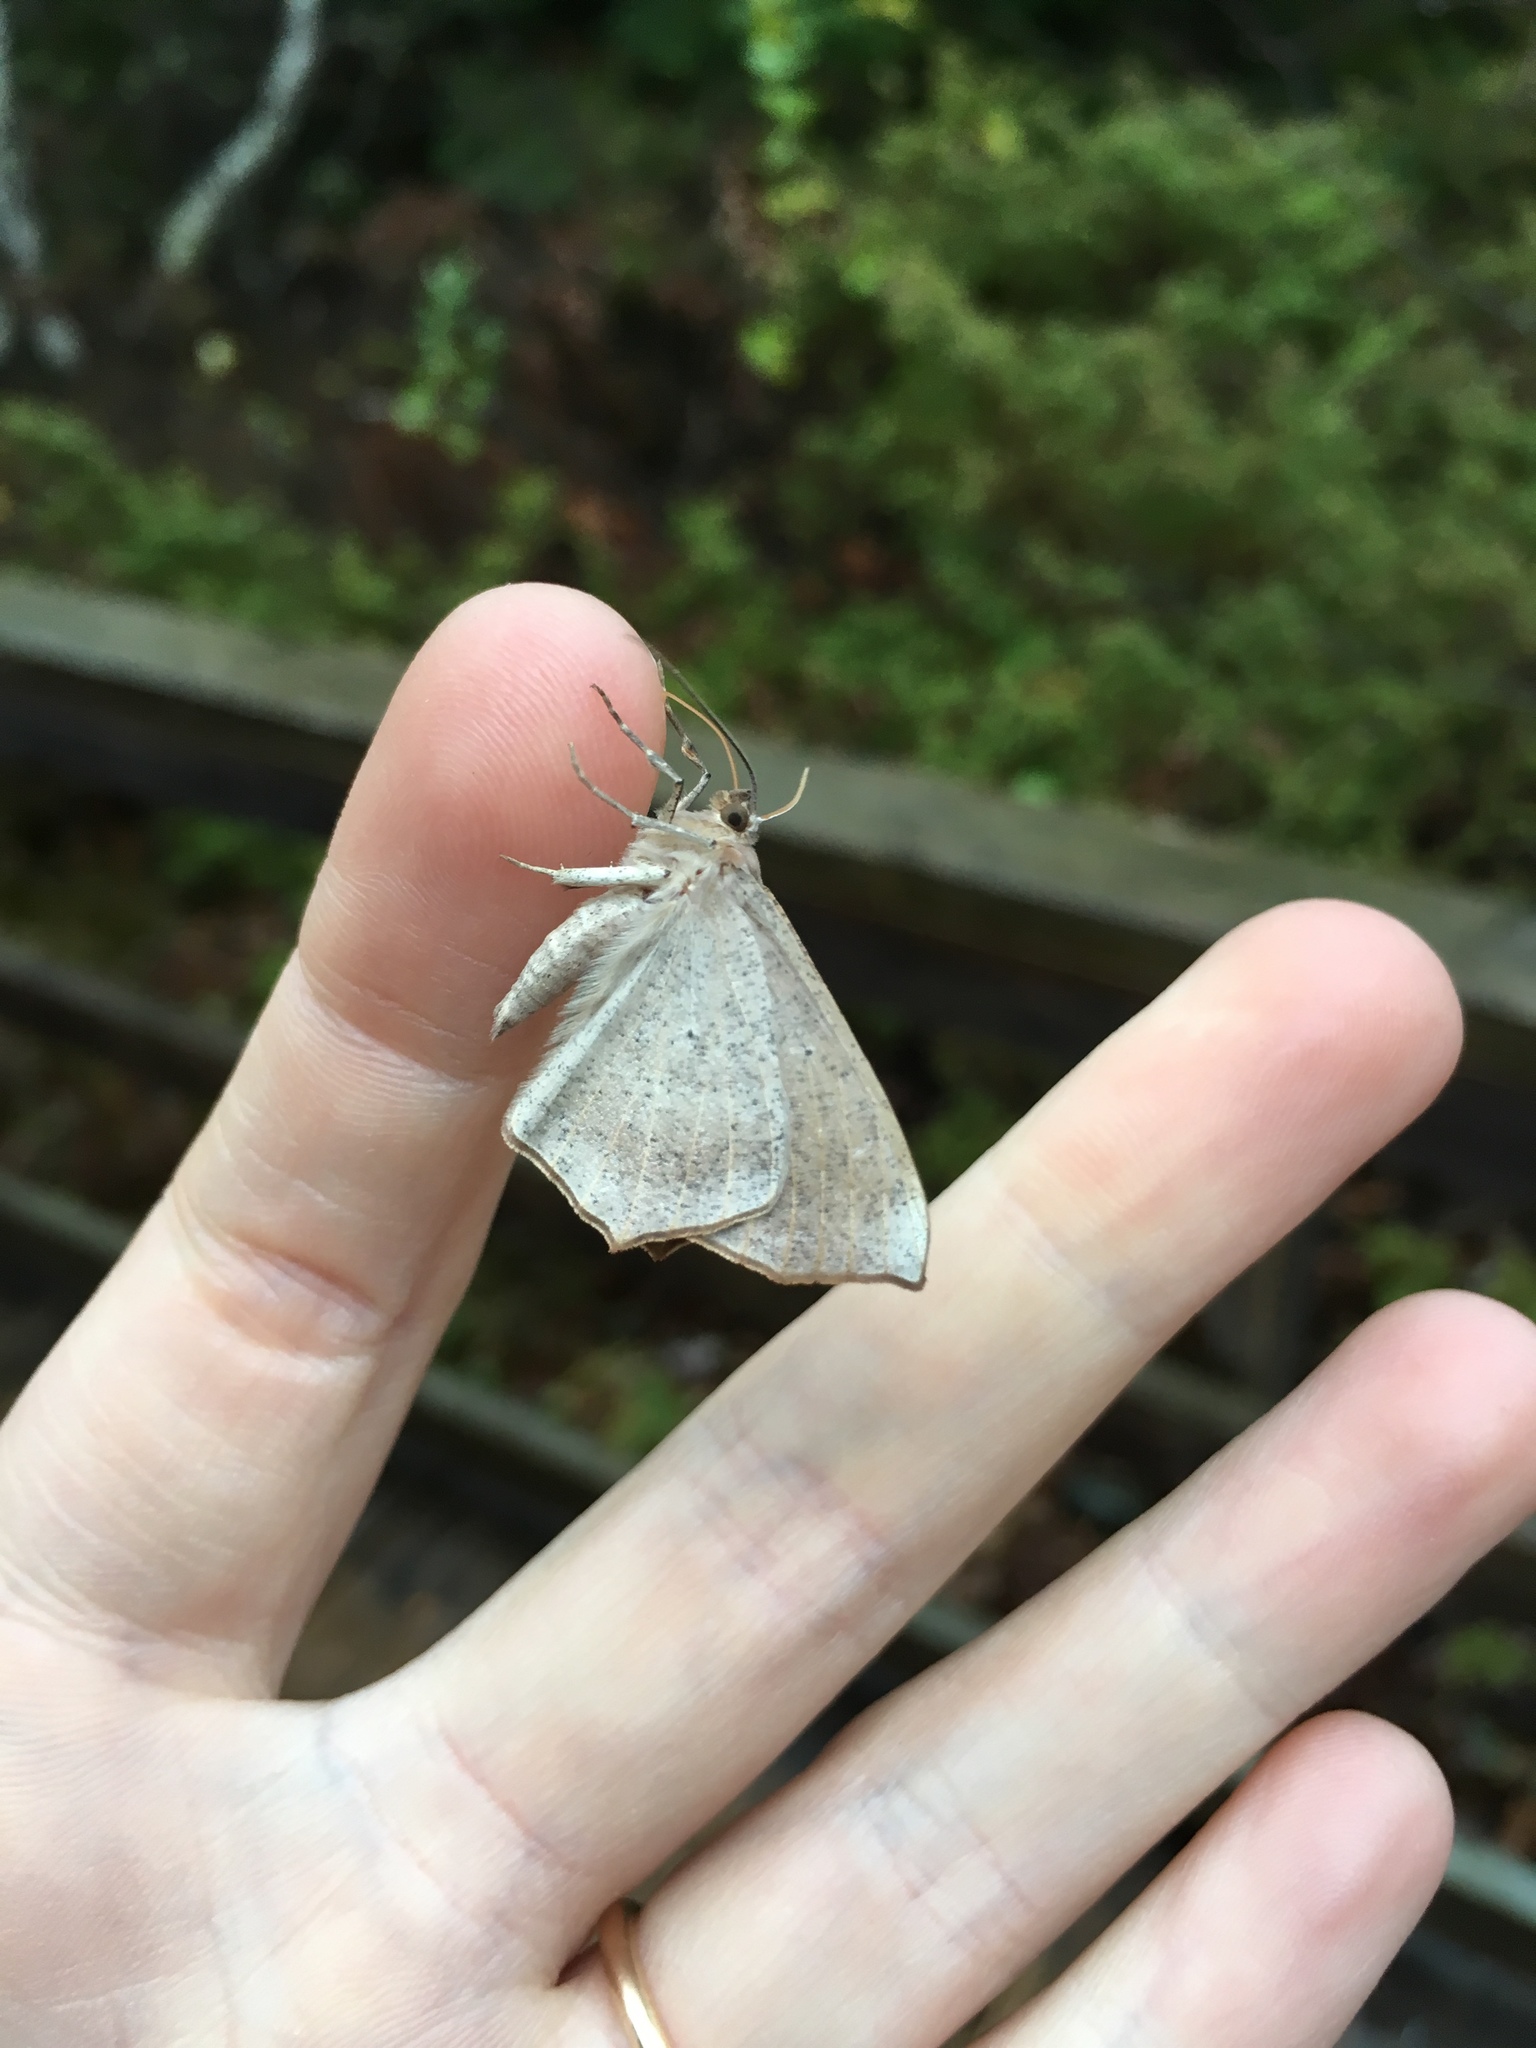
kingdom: Animalia
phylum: Arthropoda
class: Insecta
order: Lepidoptera
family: Geometridae
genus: Prochoerodes
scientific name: Prochoerodes lineola
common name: Large maple spanworm
